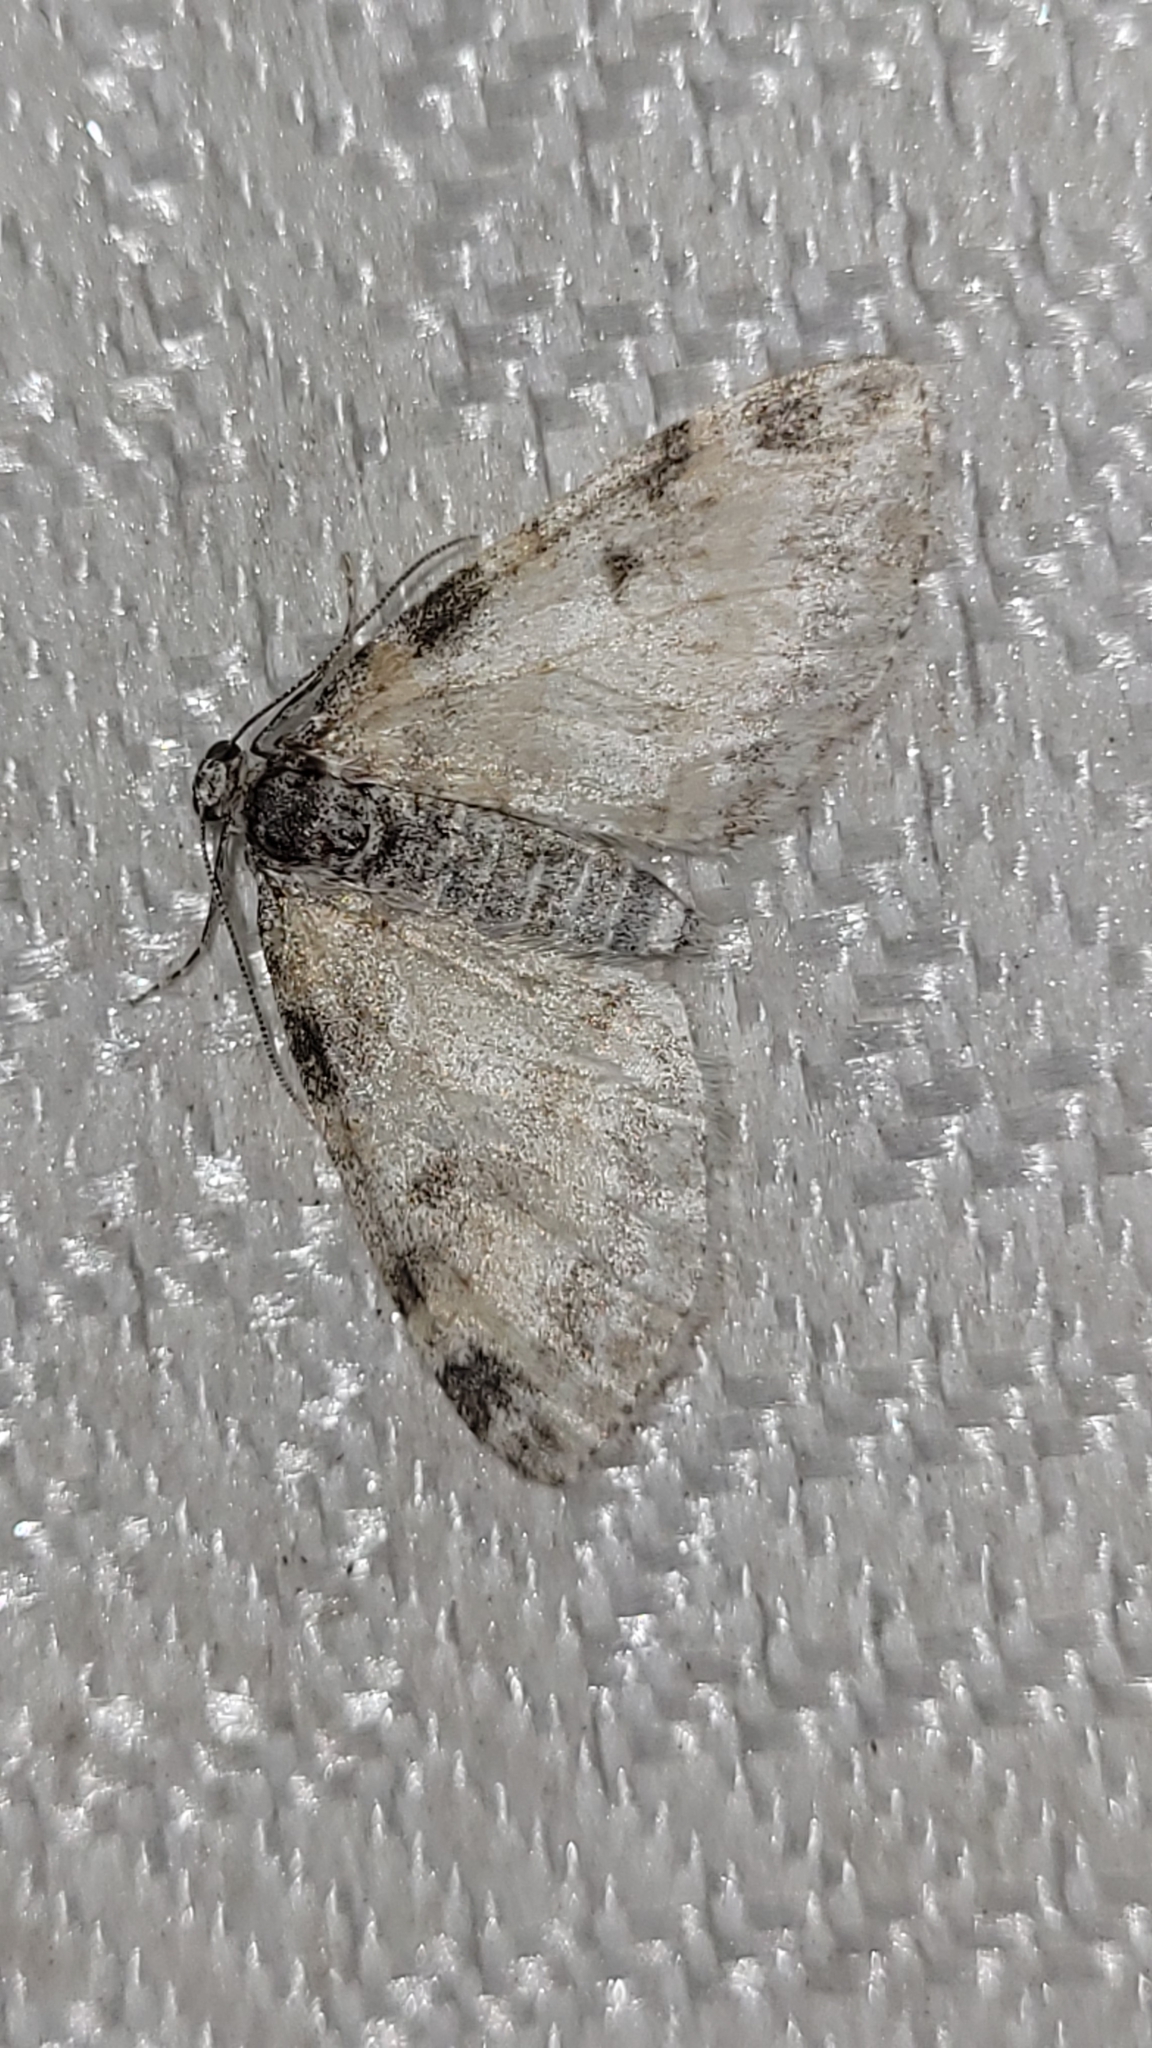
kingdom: Animalia
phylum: Arthropoda
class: Insecta
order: Lepidoptera
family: Geometridae
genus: Lobophora
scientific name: Lobophora nivigerata
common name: Powdered bigwing
